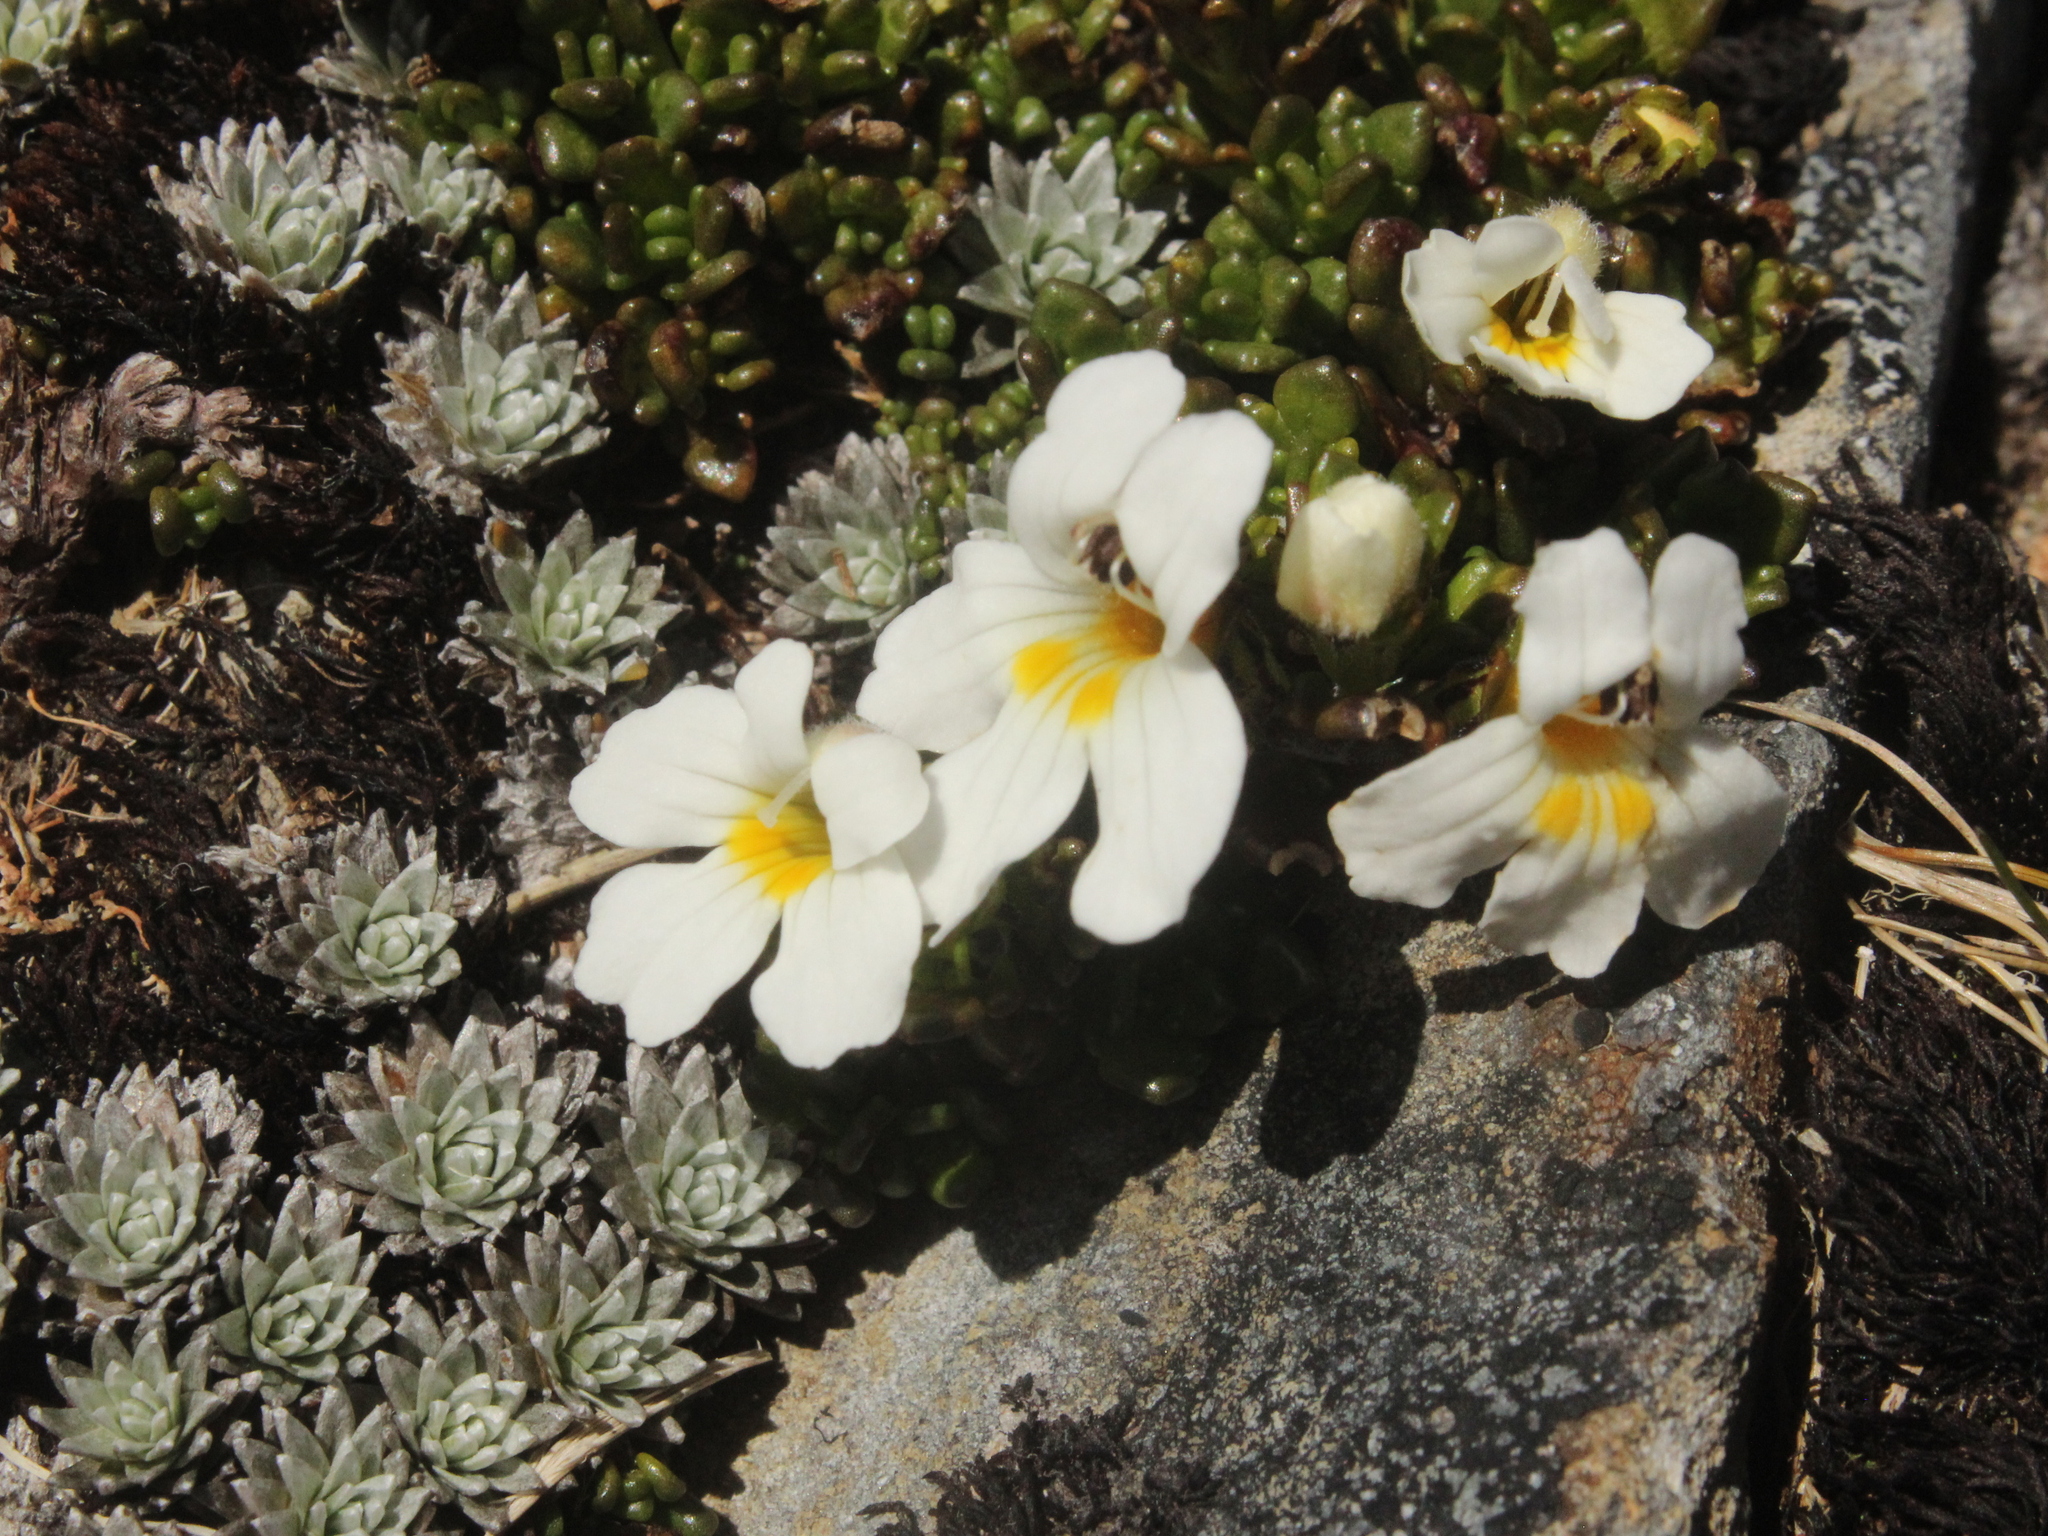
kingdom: Plantae
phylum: Tracheophyta
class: Magnoliopsida
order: Lamiales
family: Orobanchaceae
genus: Euphrasia
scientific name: Euphrasia revoluta
